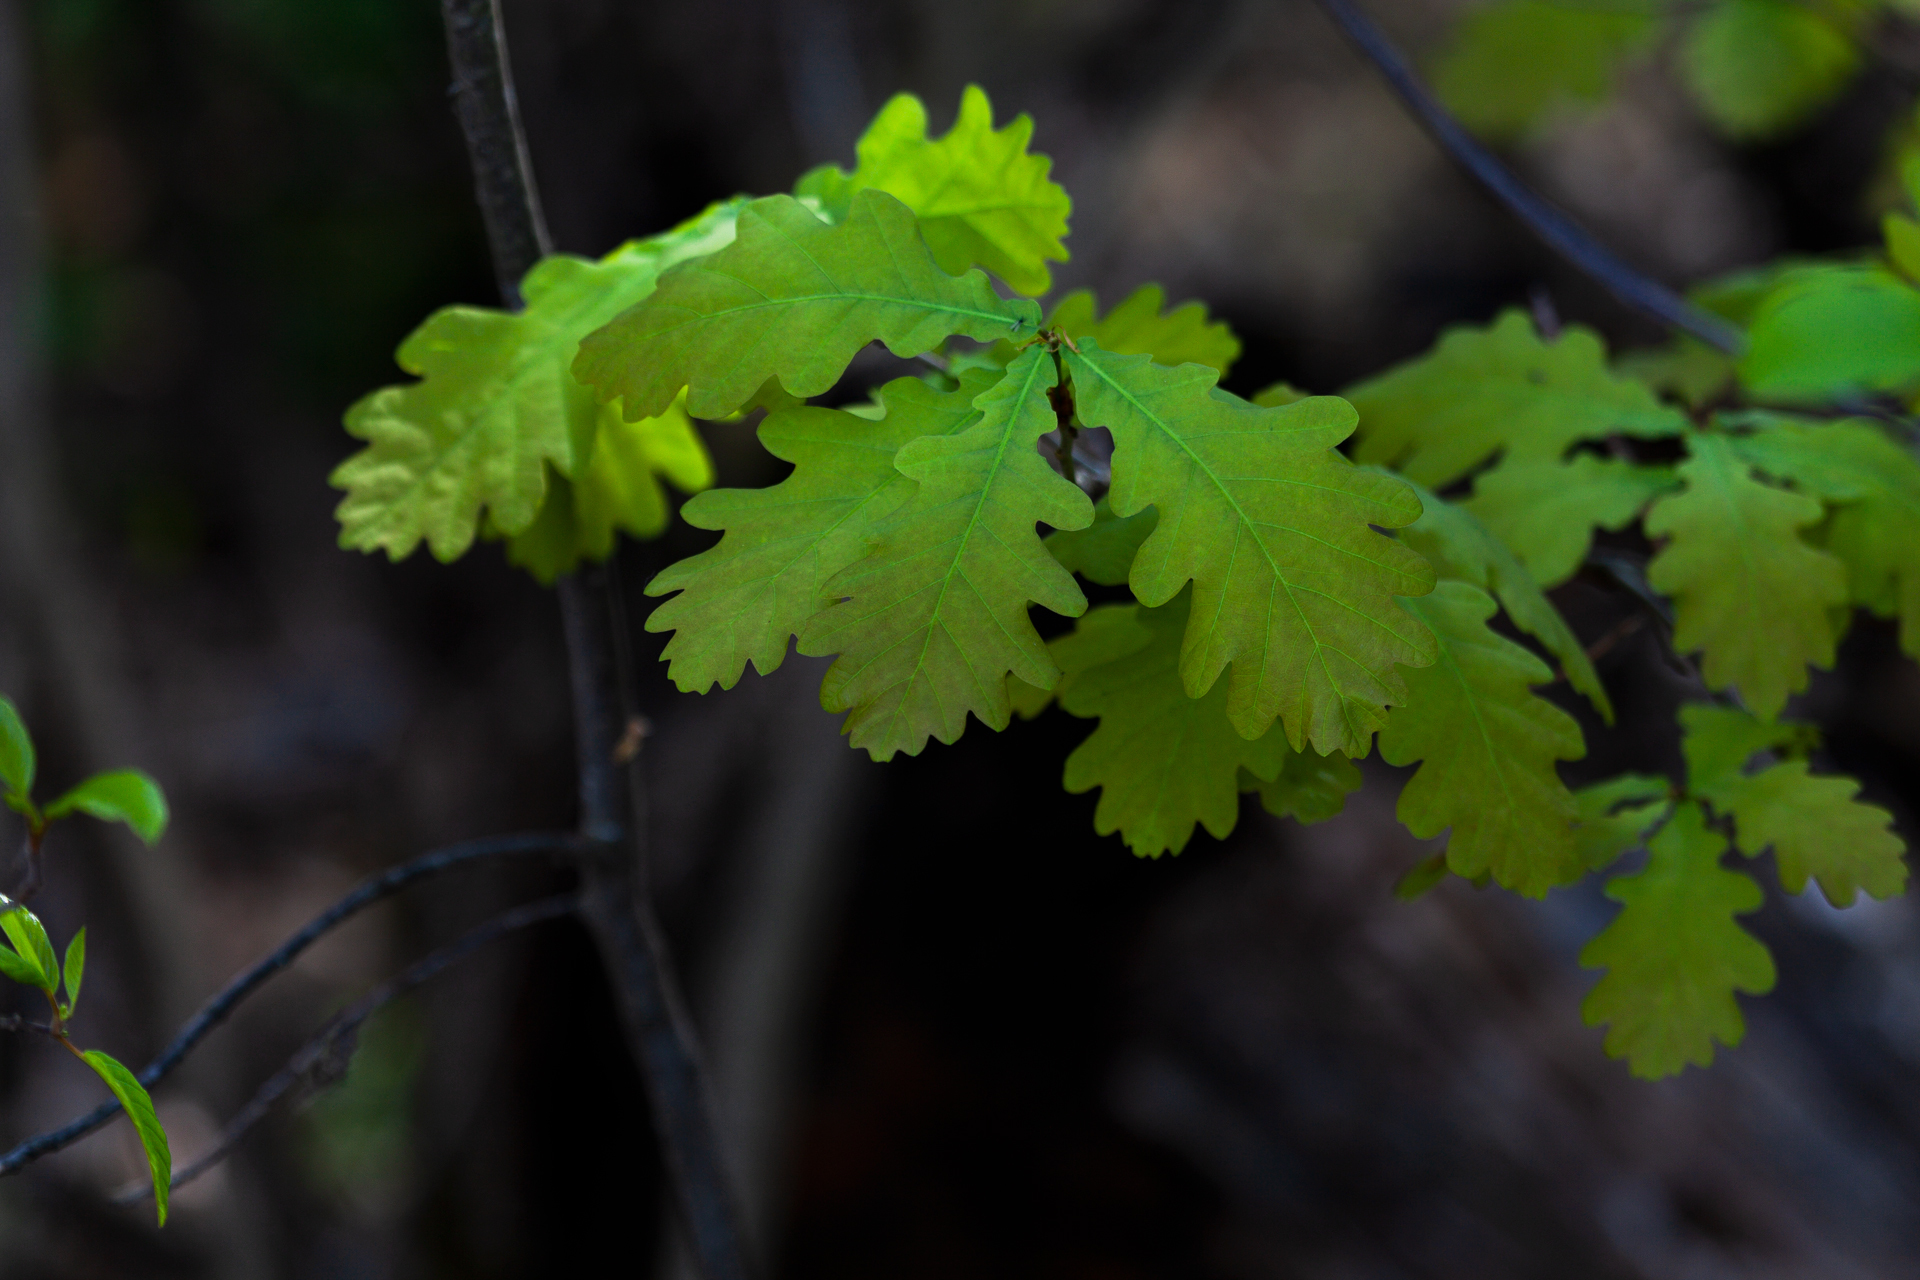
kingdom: Plantae
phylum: Tracheophyta
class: Magnoliopsida
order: Fagales
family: Fagaceae
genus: Quercus
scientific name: Quercus robur
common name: Pedunculate oak
